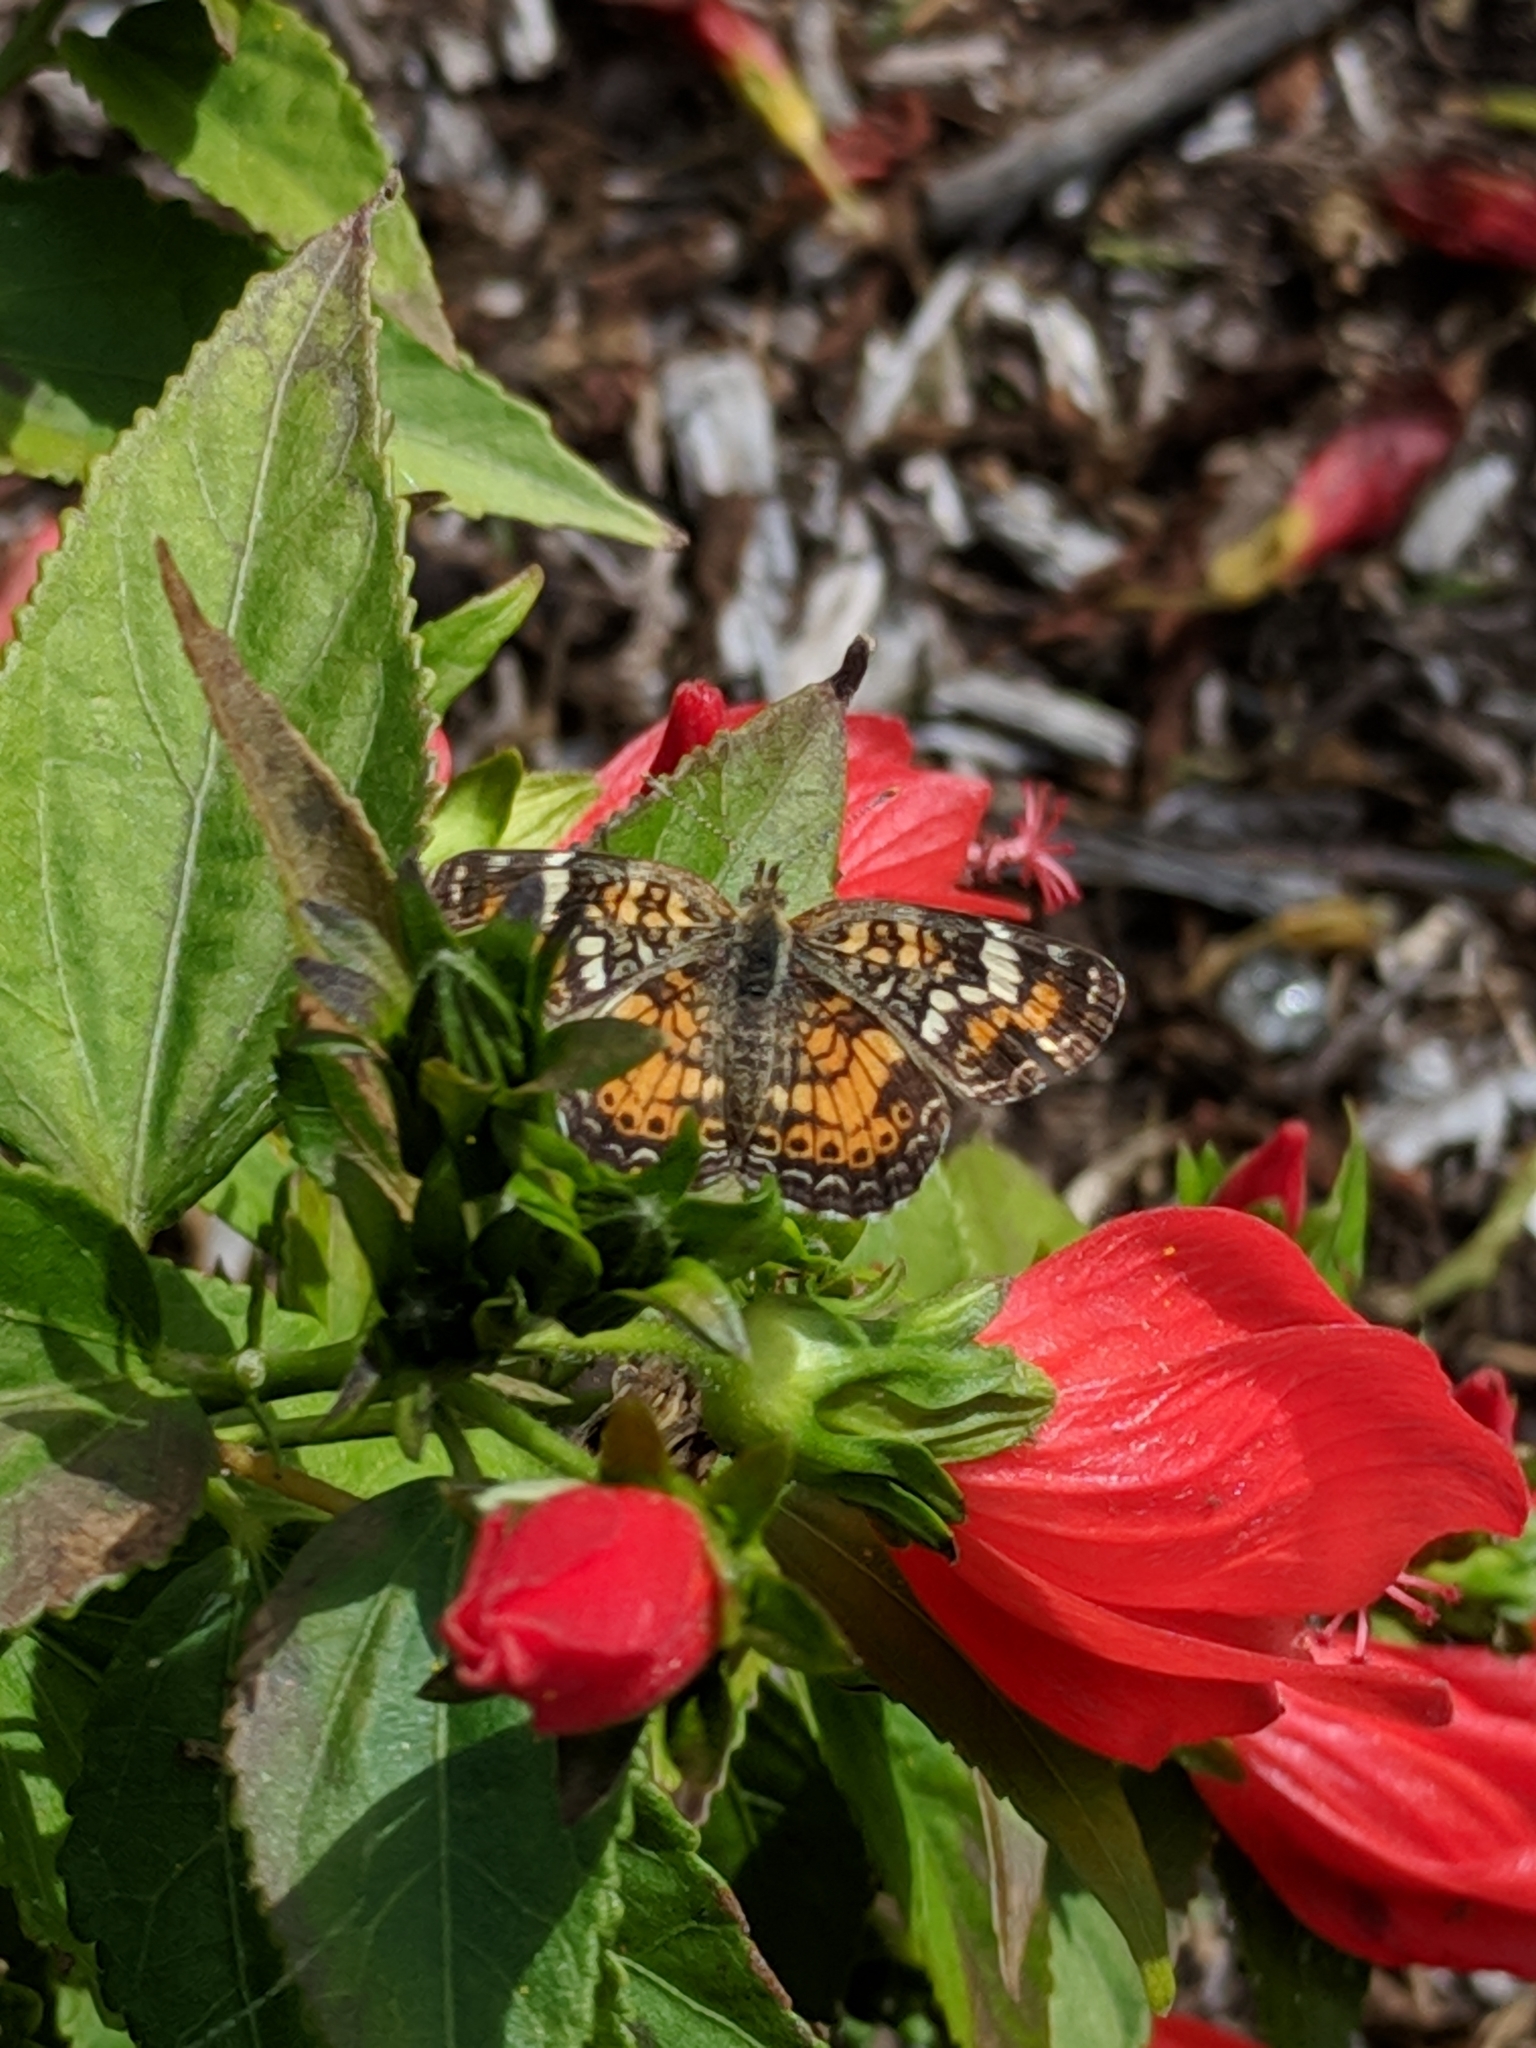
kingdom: Animalia
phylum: Arthropoda
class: Insecta
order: Lepidoptera
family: Nymphalidae
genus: Phyciodes
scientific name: Phyciodes phaon
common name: Phaon crescent
